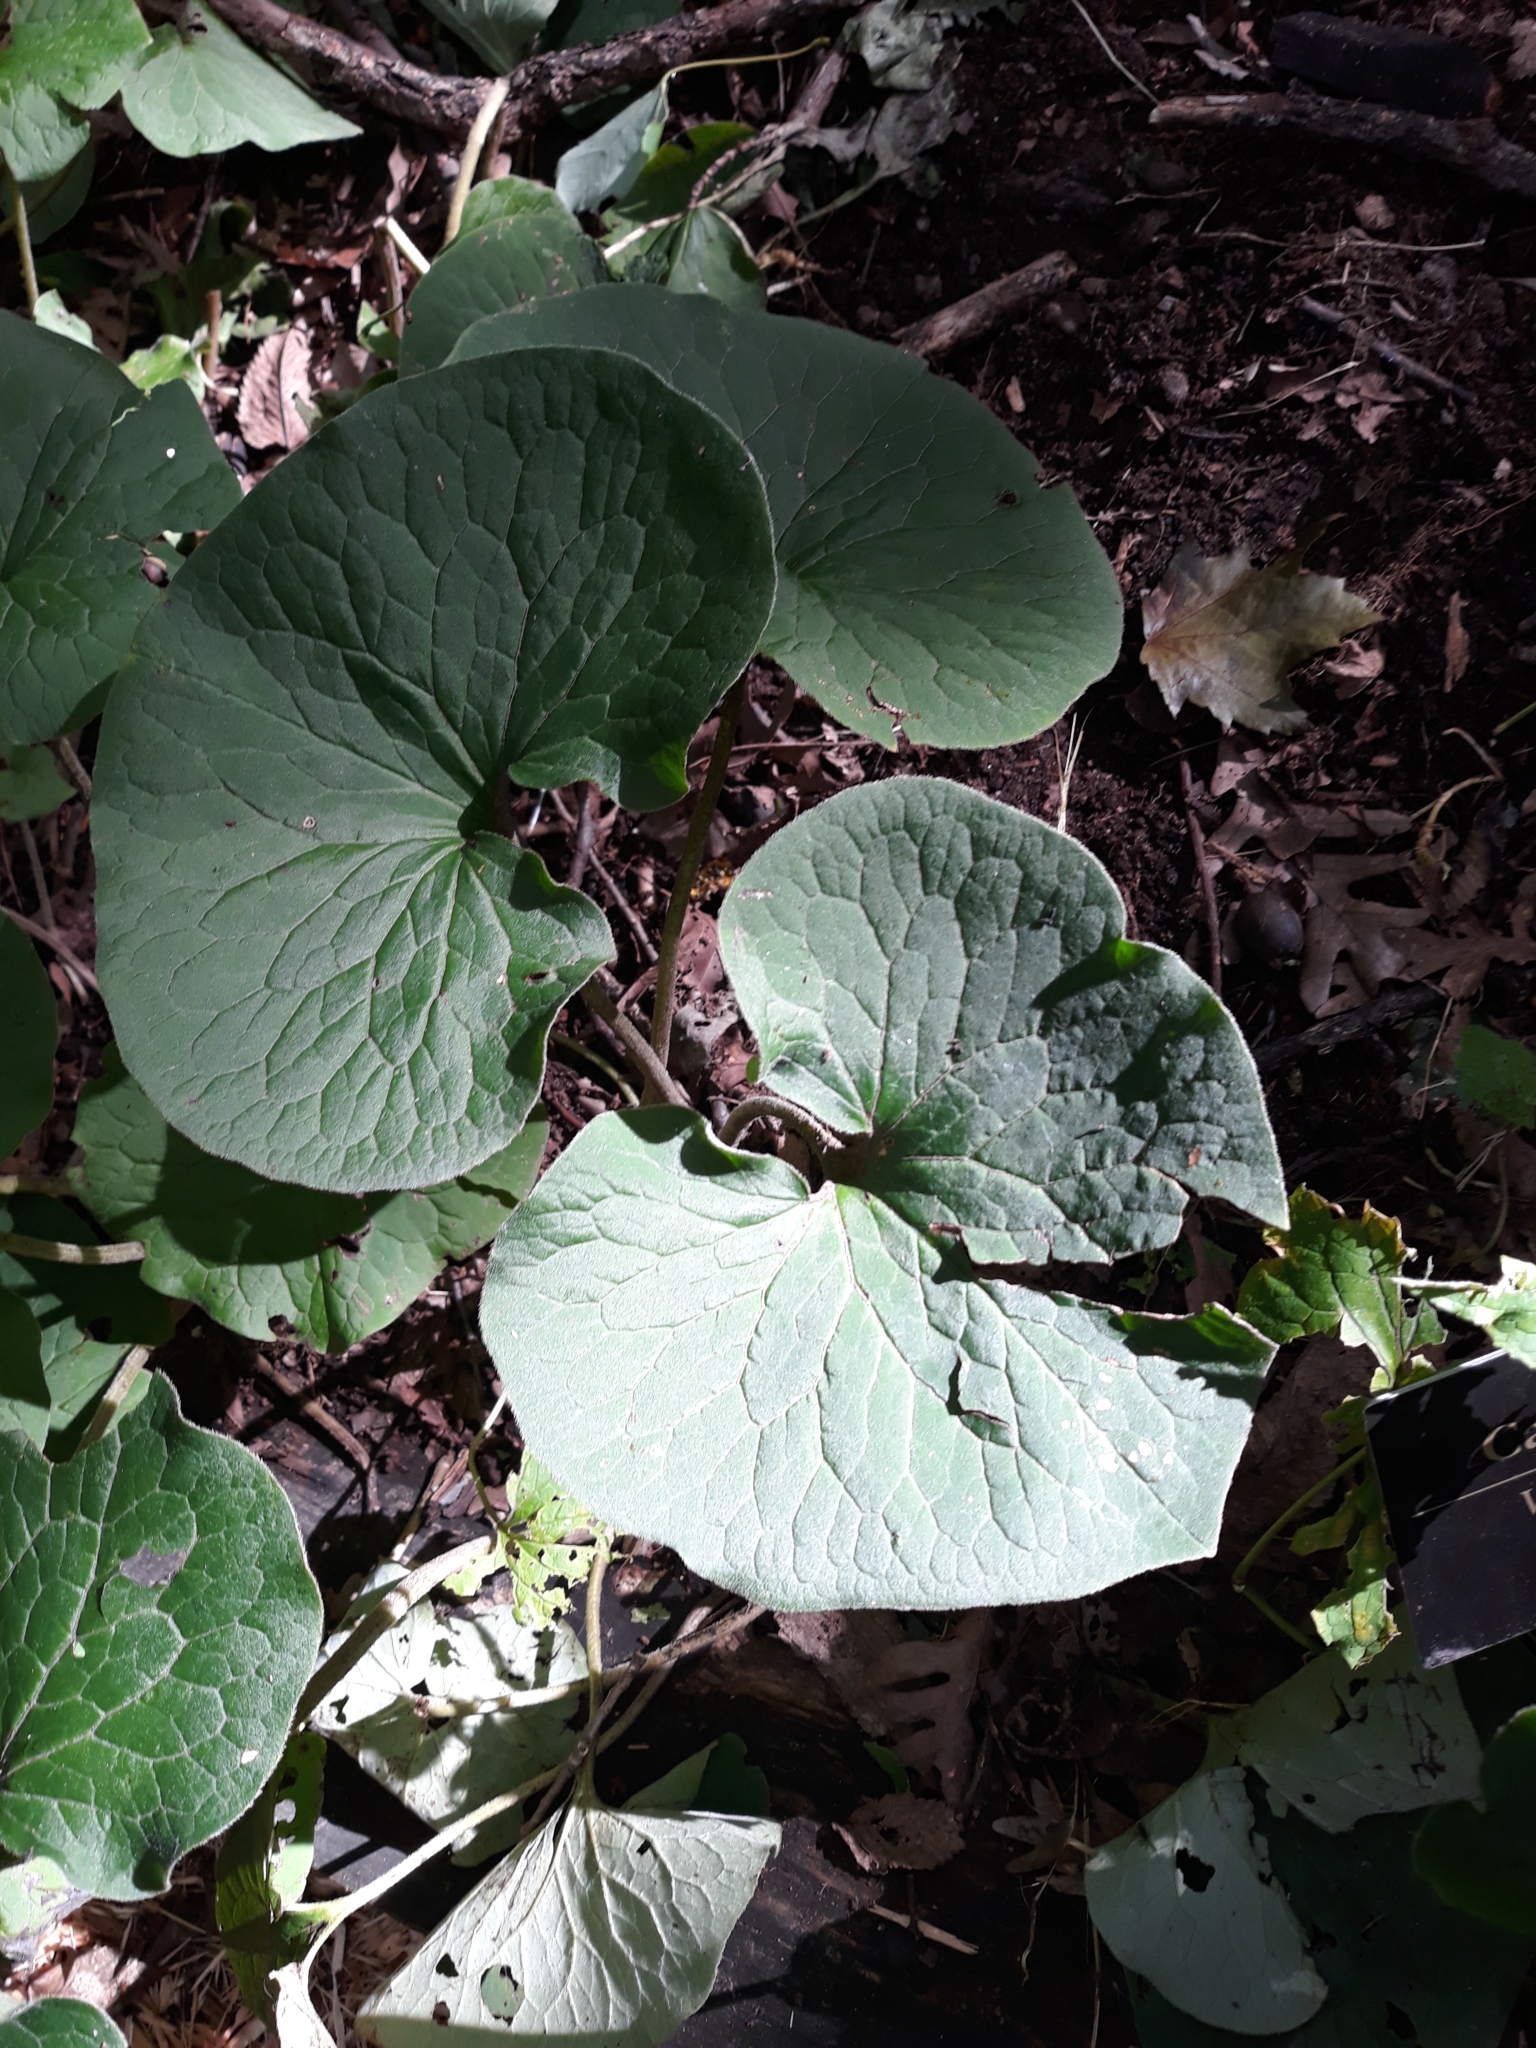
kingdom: Plantae
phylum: Tracheophyta
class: Magnoliopsida
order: Piperales
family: Aristolochiaceae
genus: Asarum
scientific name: Asarum canadense
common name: Wild ginger
